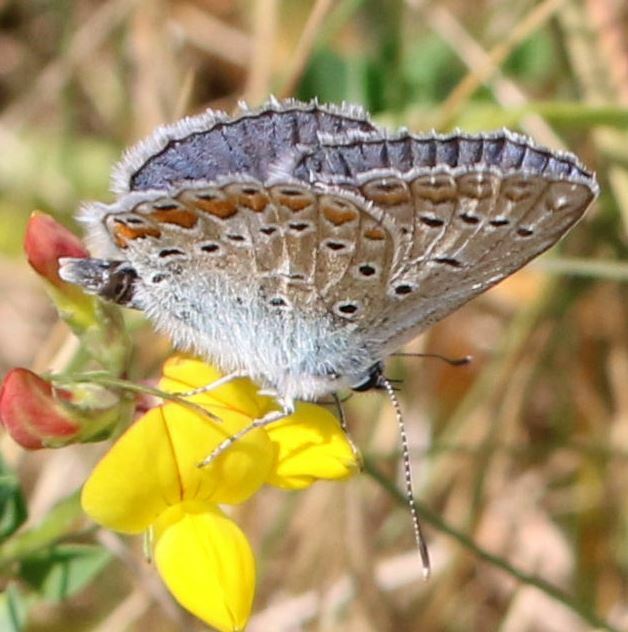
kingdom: Animalia
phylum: Arthropoda
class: Insecta
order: Lepidoptera
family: Lycaenidae
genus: Polyommatus
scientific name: Polyommatus icarus
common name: Common blue
